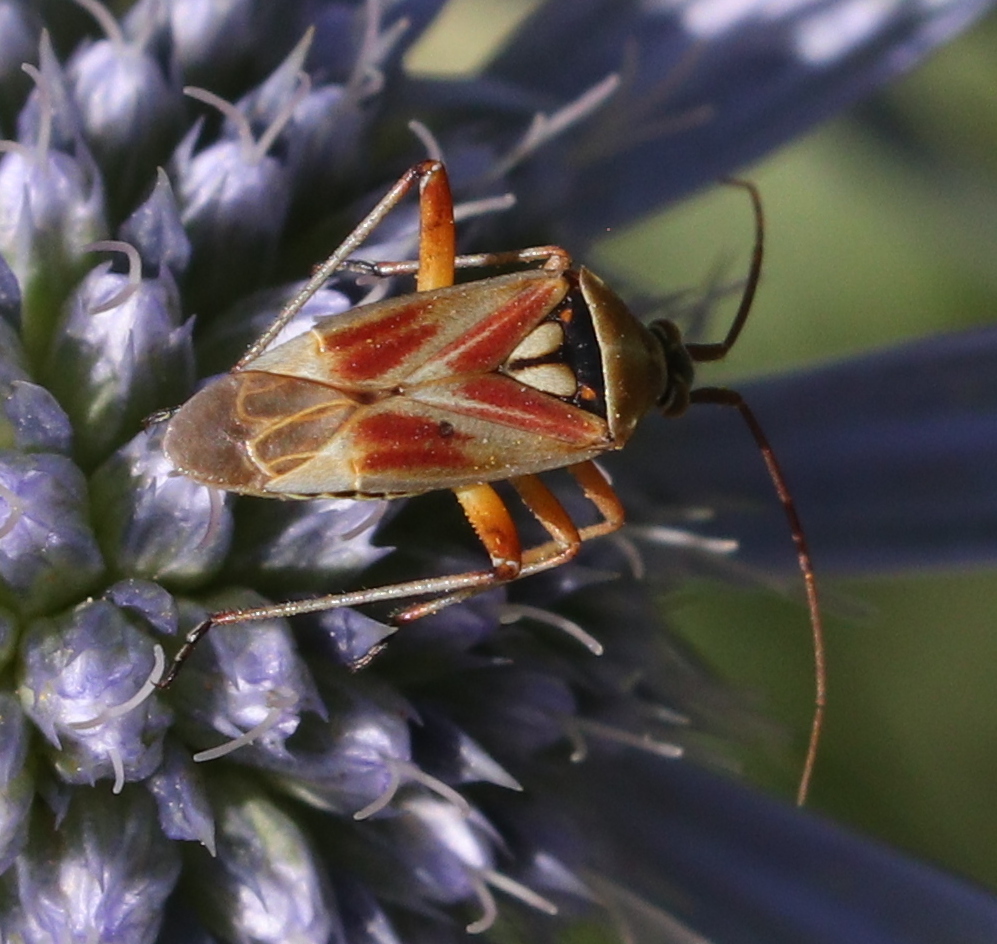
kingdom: Animalia
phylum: Arthropoda
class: Insecta
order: Hemiptera
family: Miridae
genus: Calocoris
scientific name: Calocoris roseomaculatus
